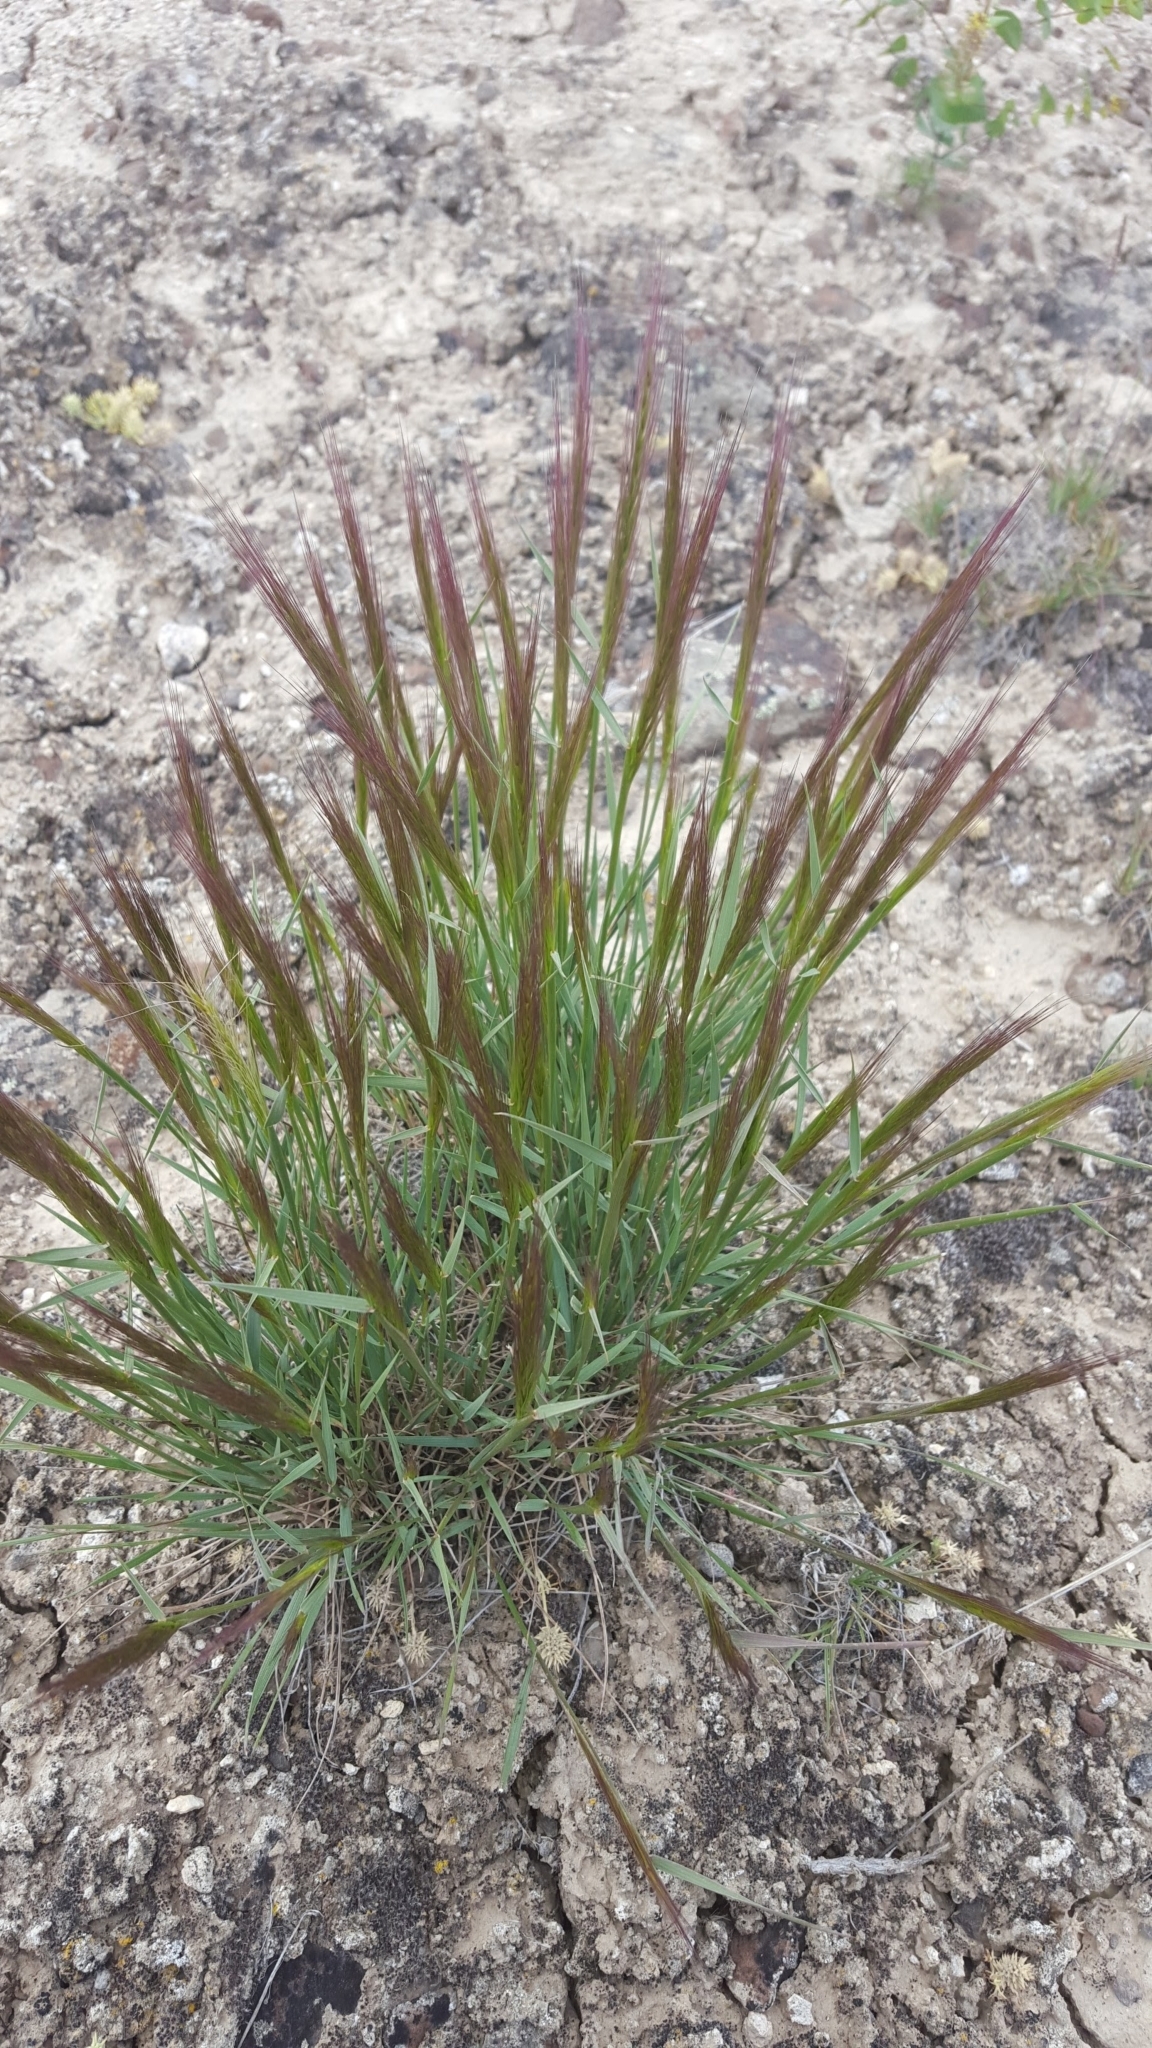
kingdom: Plantae
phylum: Tracheophyta
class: Liliopsida
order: Poales
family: Poaceae
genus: Elymus
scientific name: Elymus elymoides
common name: Bottlebrush squirreltail
